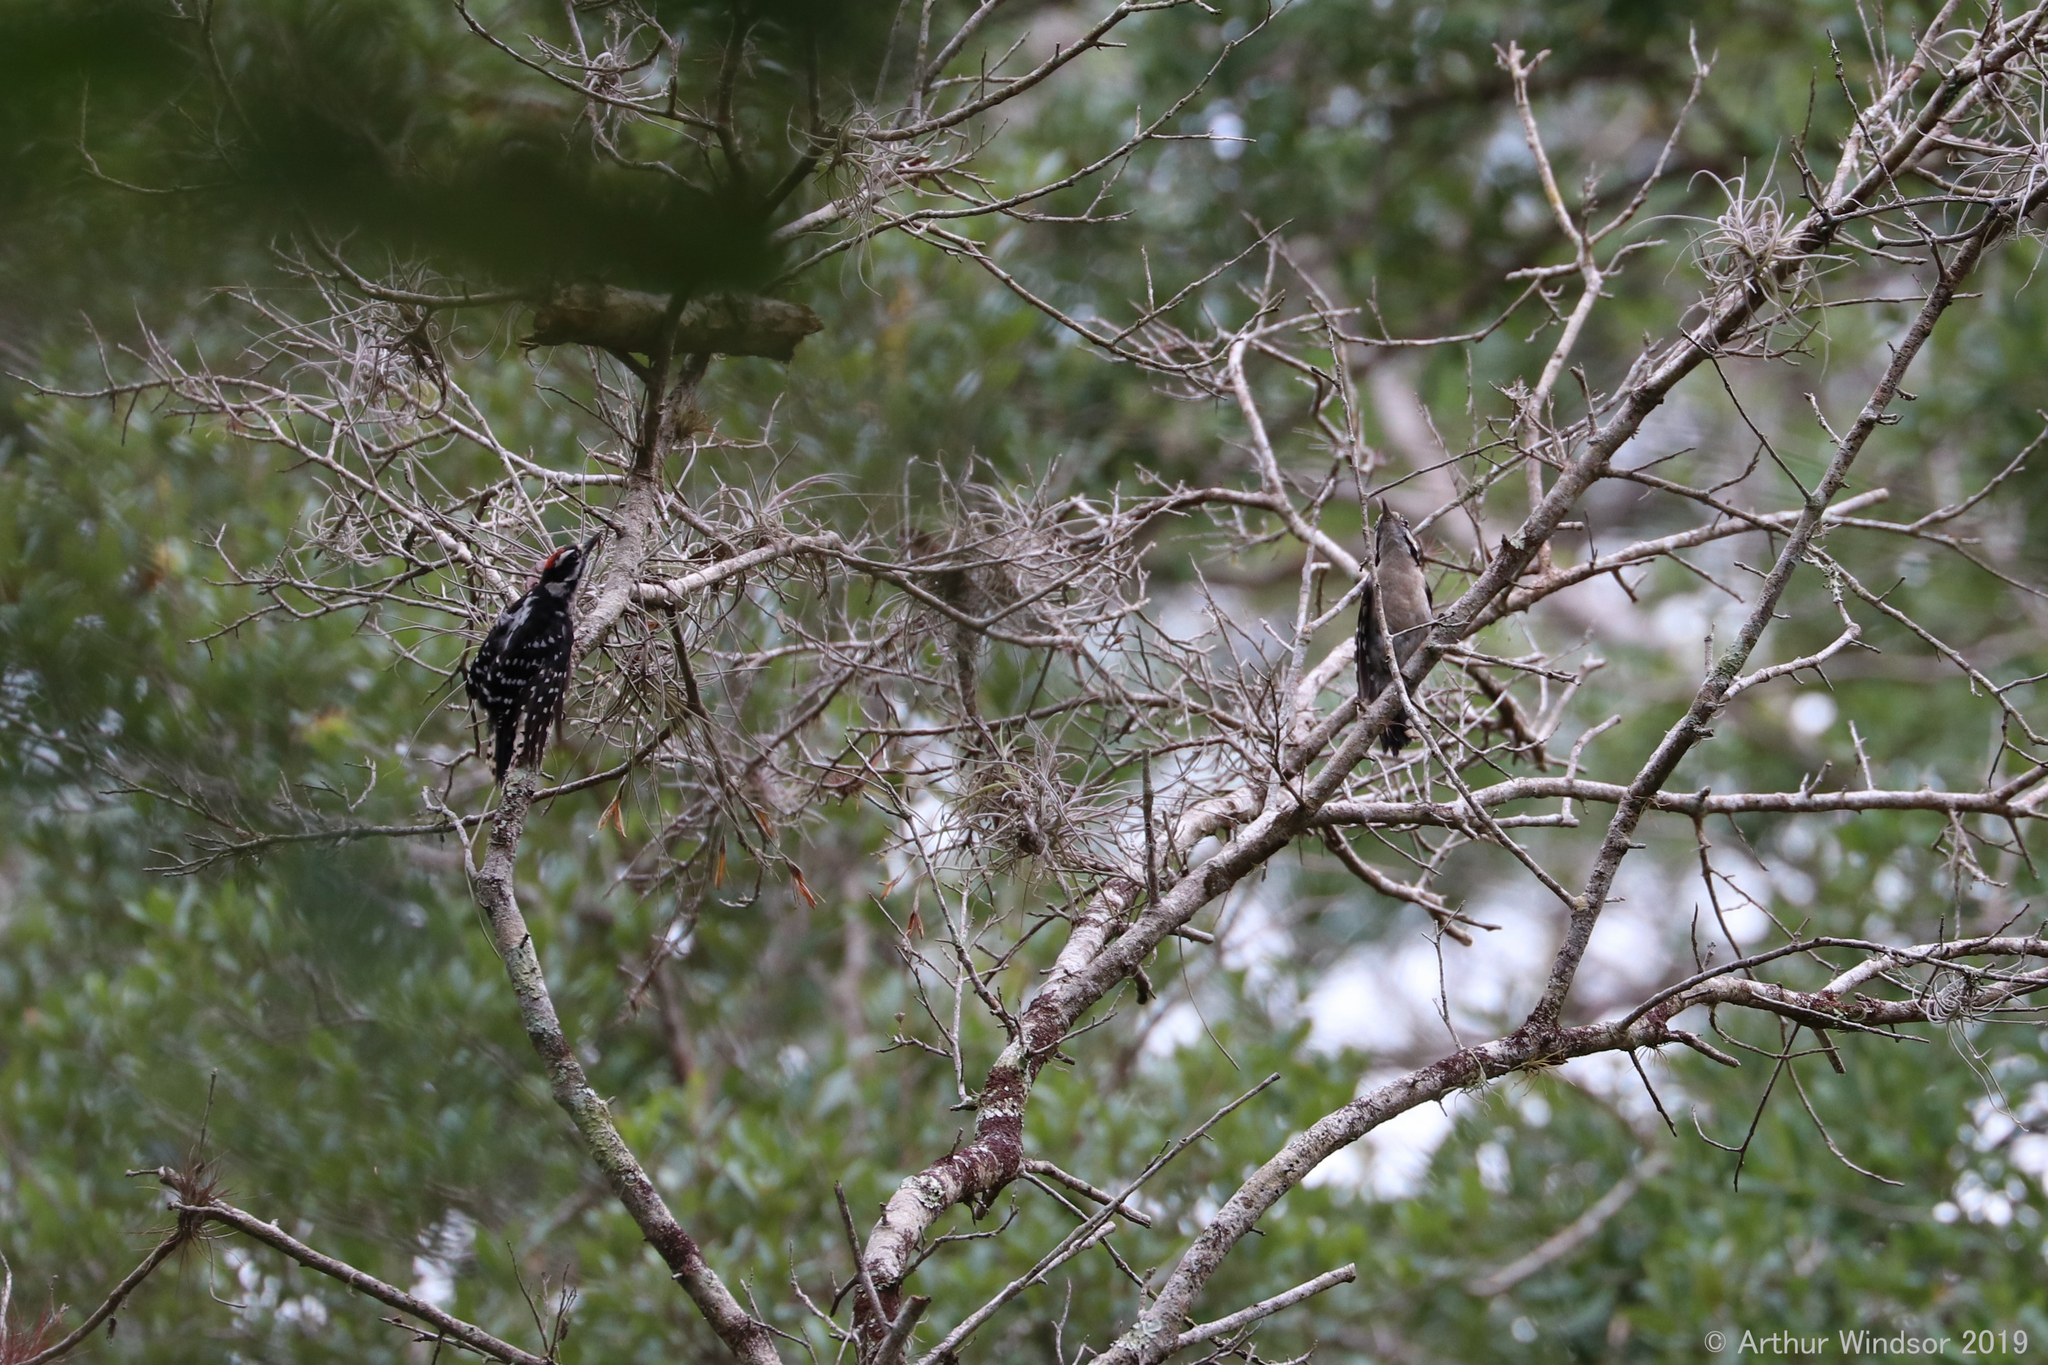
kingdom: Animalia
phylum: Chordata
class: Aves
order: Piciformes
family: Picidae
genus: Dryobates
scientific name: Dryobates pubescens
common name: Downy woodpecker
